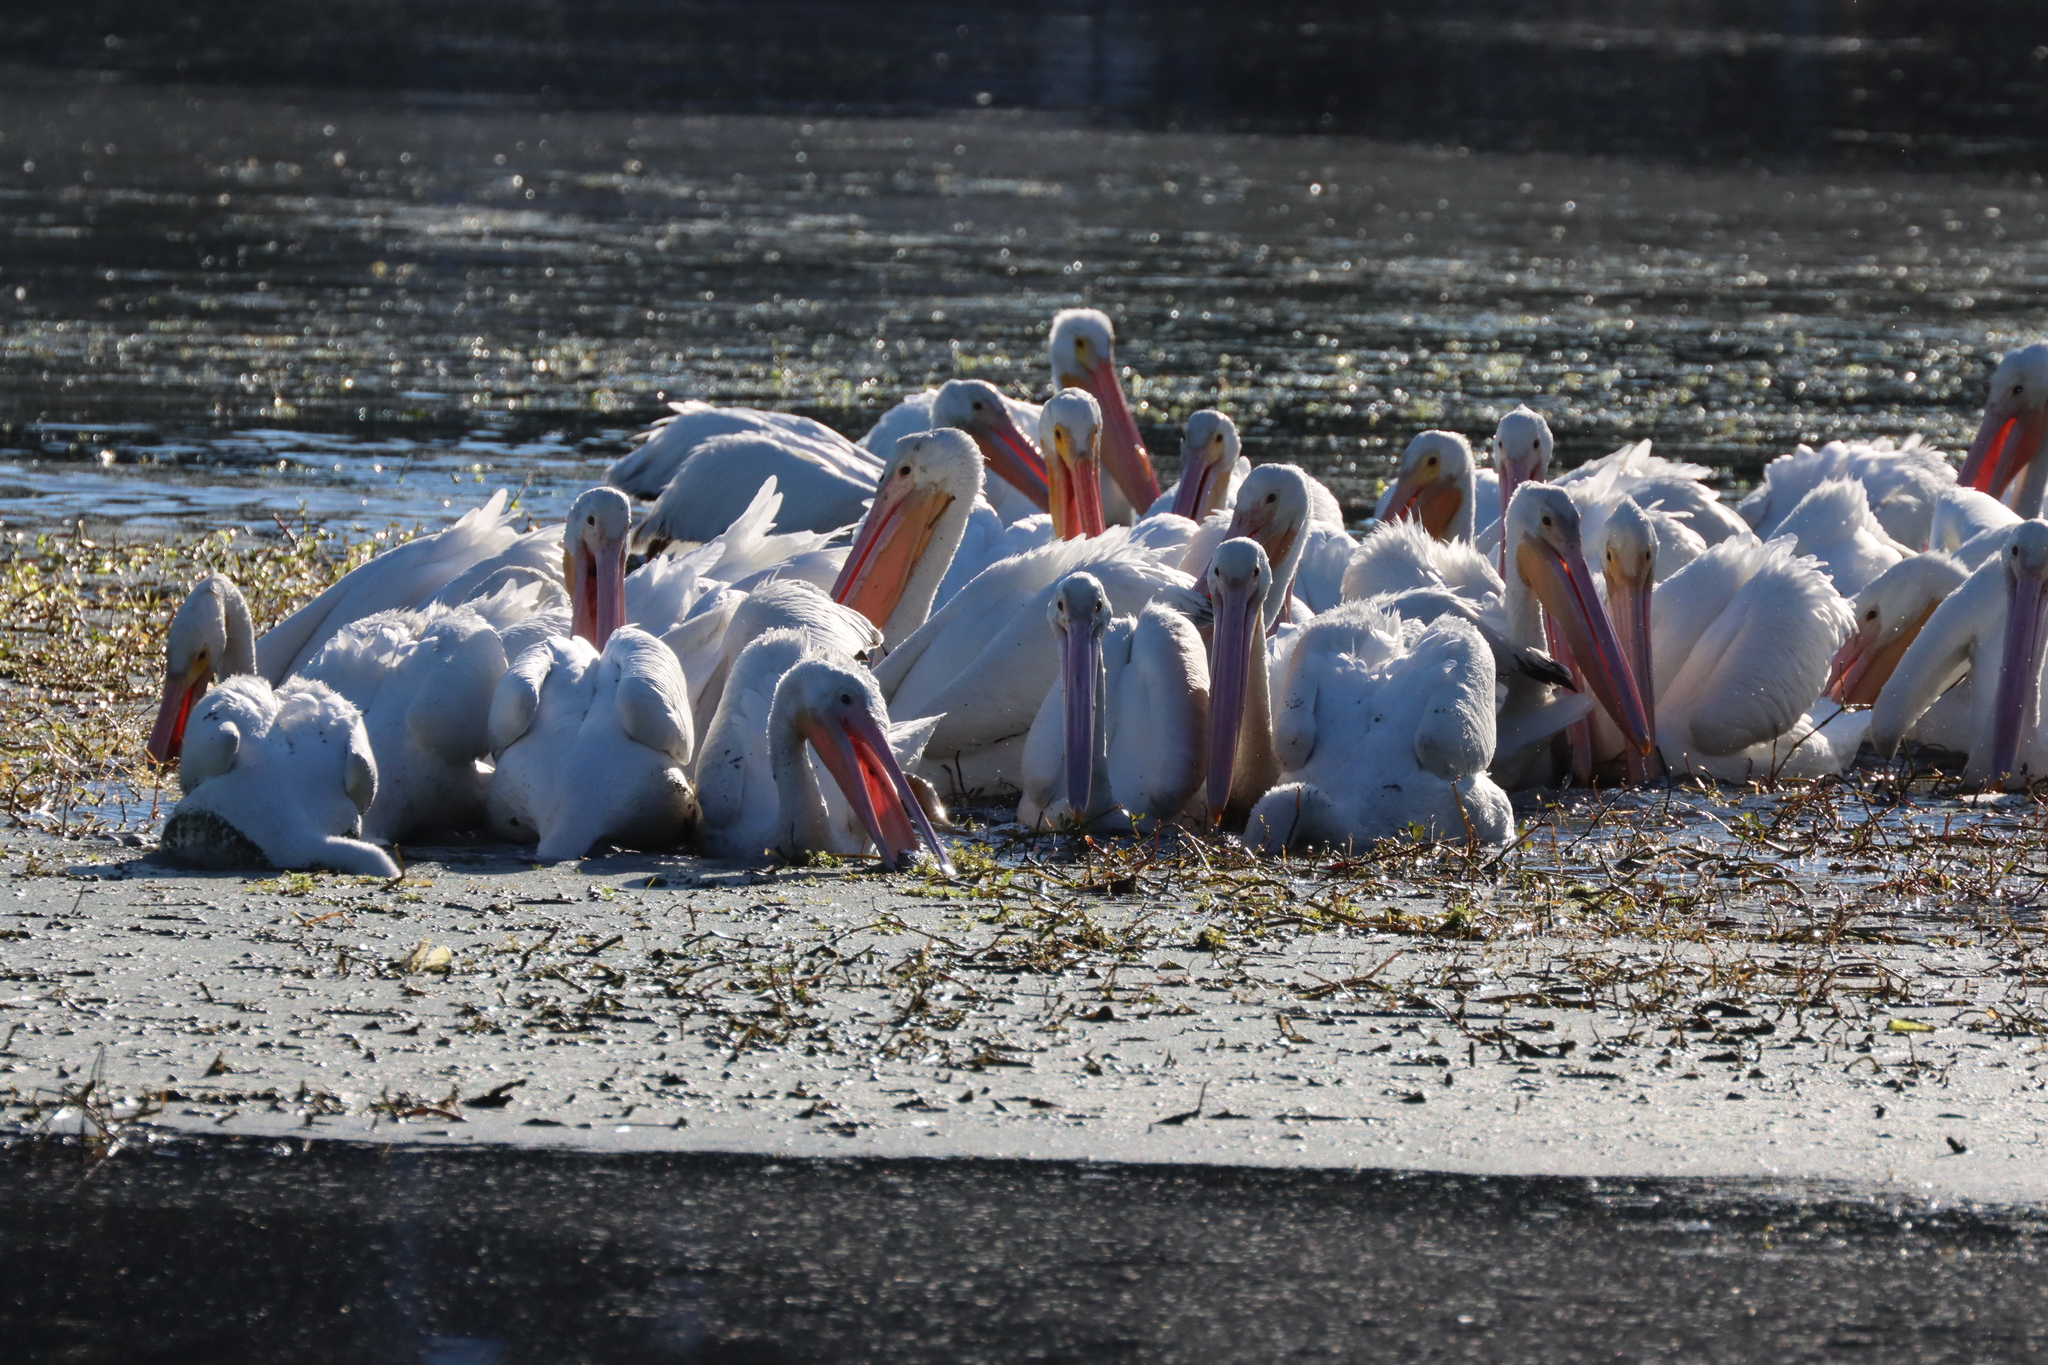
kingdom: Animalia
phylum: Chordata
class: Aves
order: Pelecaniformes
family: Pelecanidae
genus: Pelecanus
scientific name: Pelecanus erythrorhynchos
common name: American white pelican
